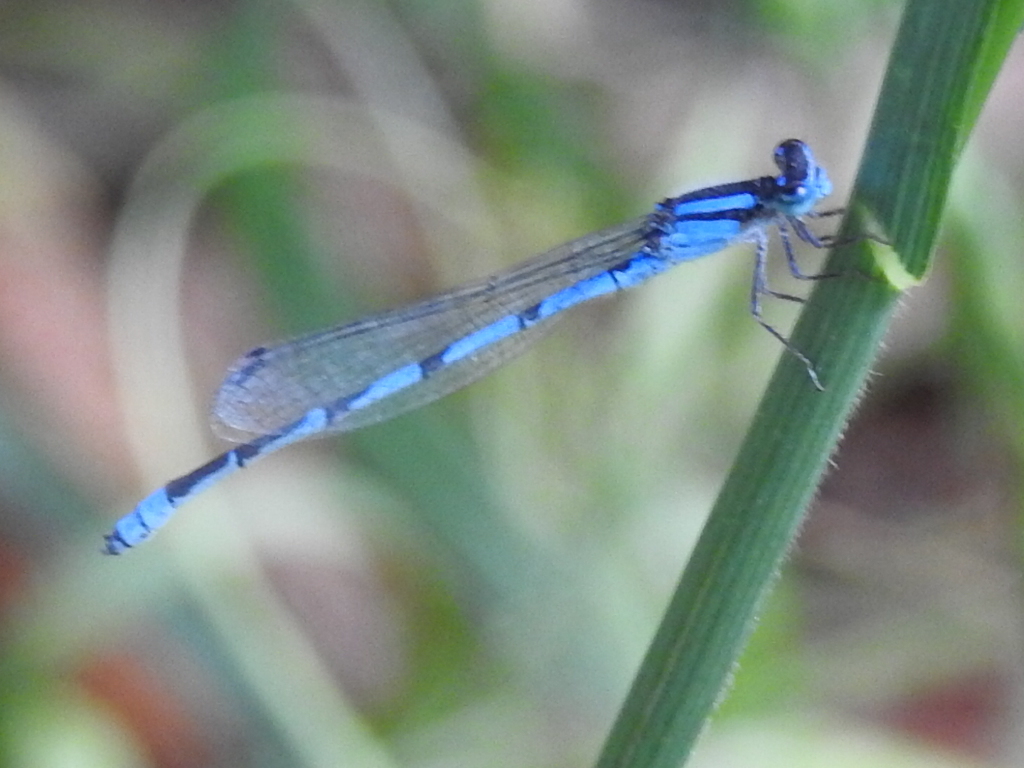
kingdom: Animalia
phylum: Arthropoda
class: Insecta
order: Odonata
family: Coenagrionidae
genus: Enallagma
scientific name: Enallagma civile
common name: Damselfly
